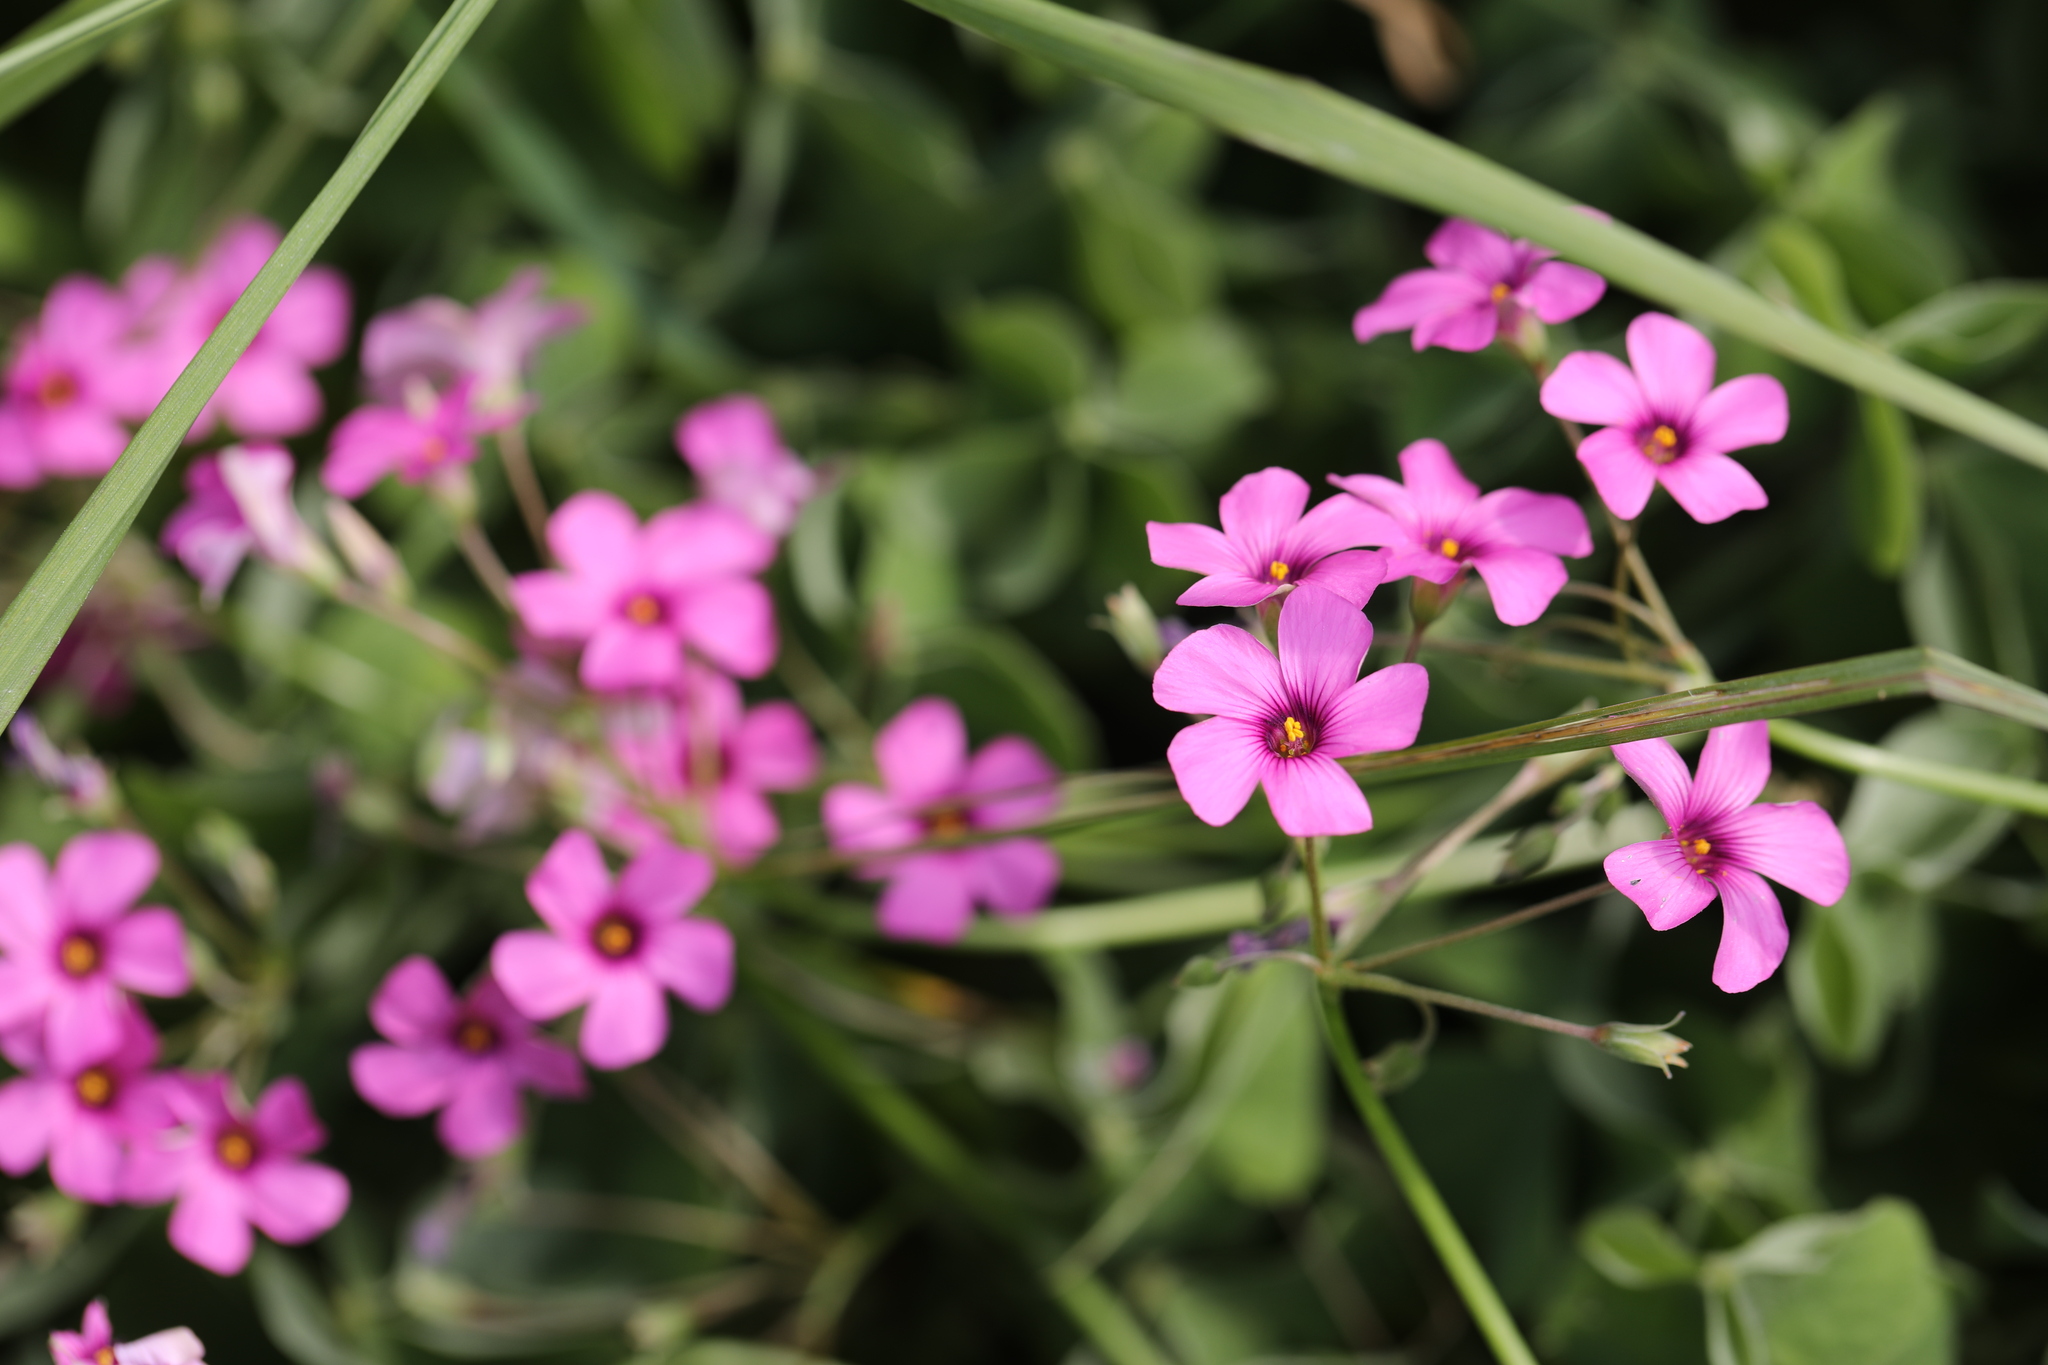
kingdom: Plantae
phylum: Tracheophyta
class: Magnoliopsida
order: Oxalidales
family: Oxalidaceae
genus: Oxalis
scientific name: Oxalis articulata
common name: Pink-sorrel
